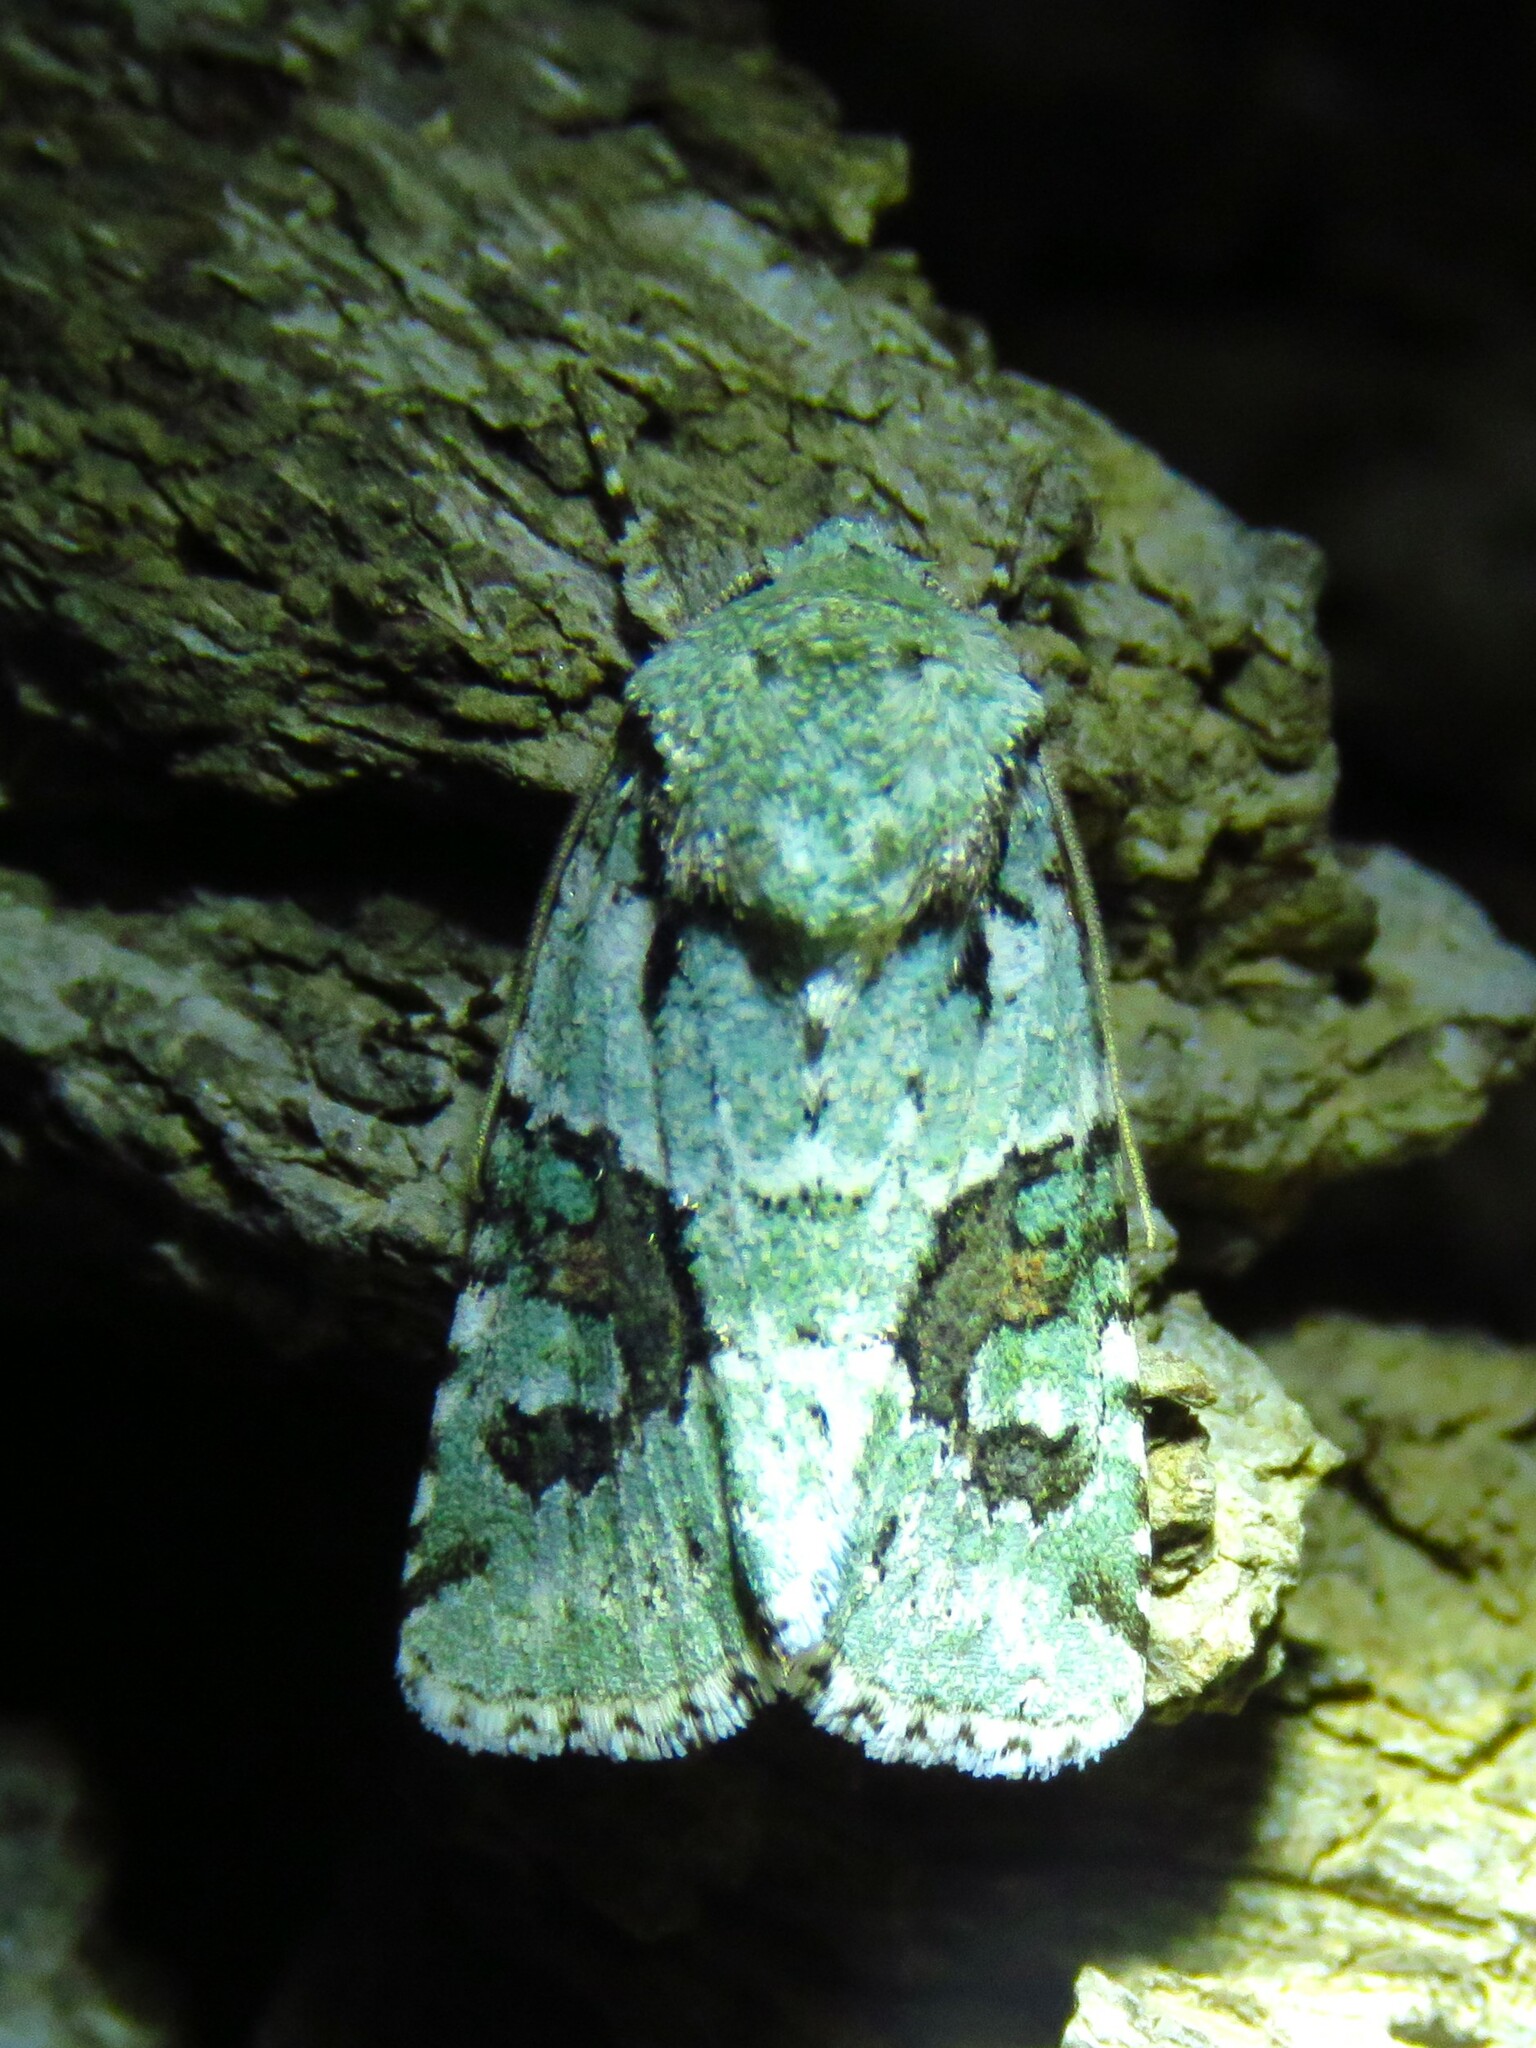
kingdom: Animalia
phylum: Arthropoda
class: Insecta
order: Lepidoptera
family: Noctuidae
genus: Lacinipolia
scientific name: Lacinipolia laudabilis
